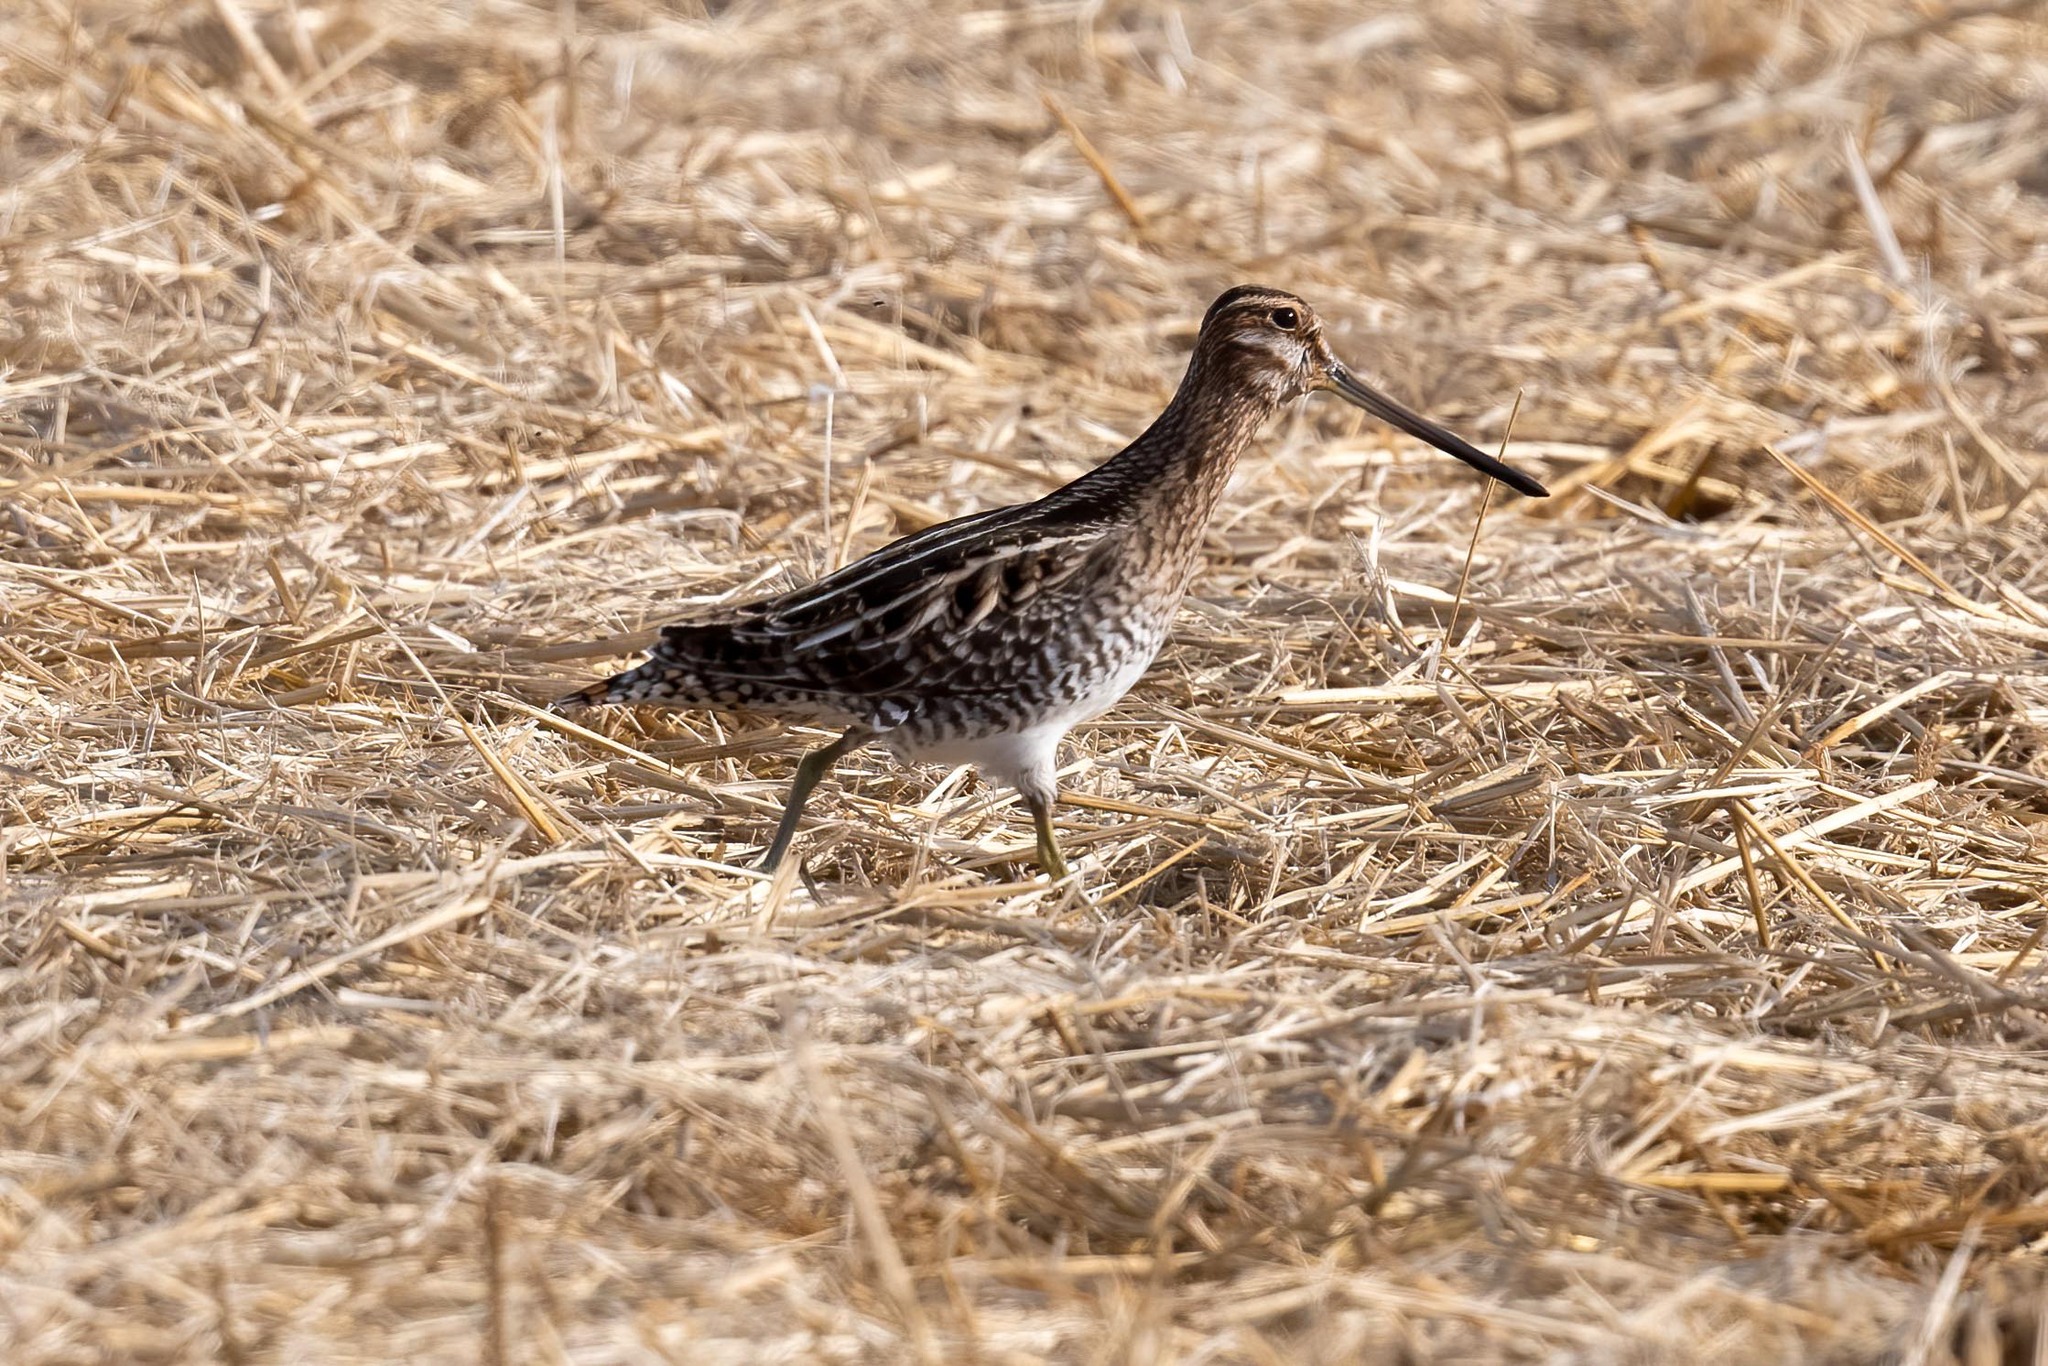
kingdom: Animalia
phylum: Chordata
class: Aves
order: Charadriiformes
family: Scolopacidae
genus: Gallinago
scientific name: Gallinago delicata
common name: Wilson's snipe
